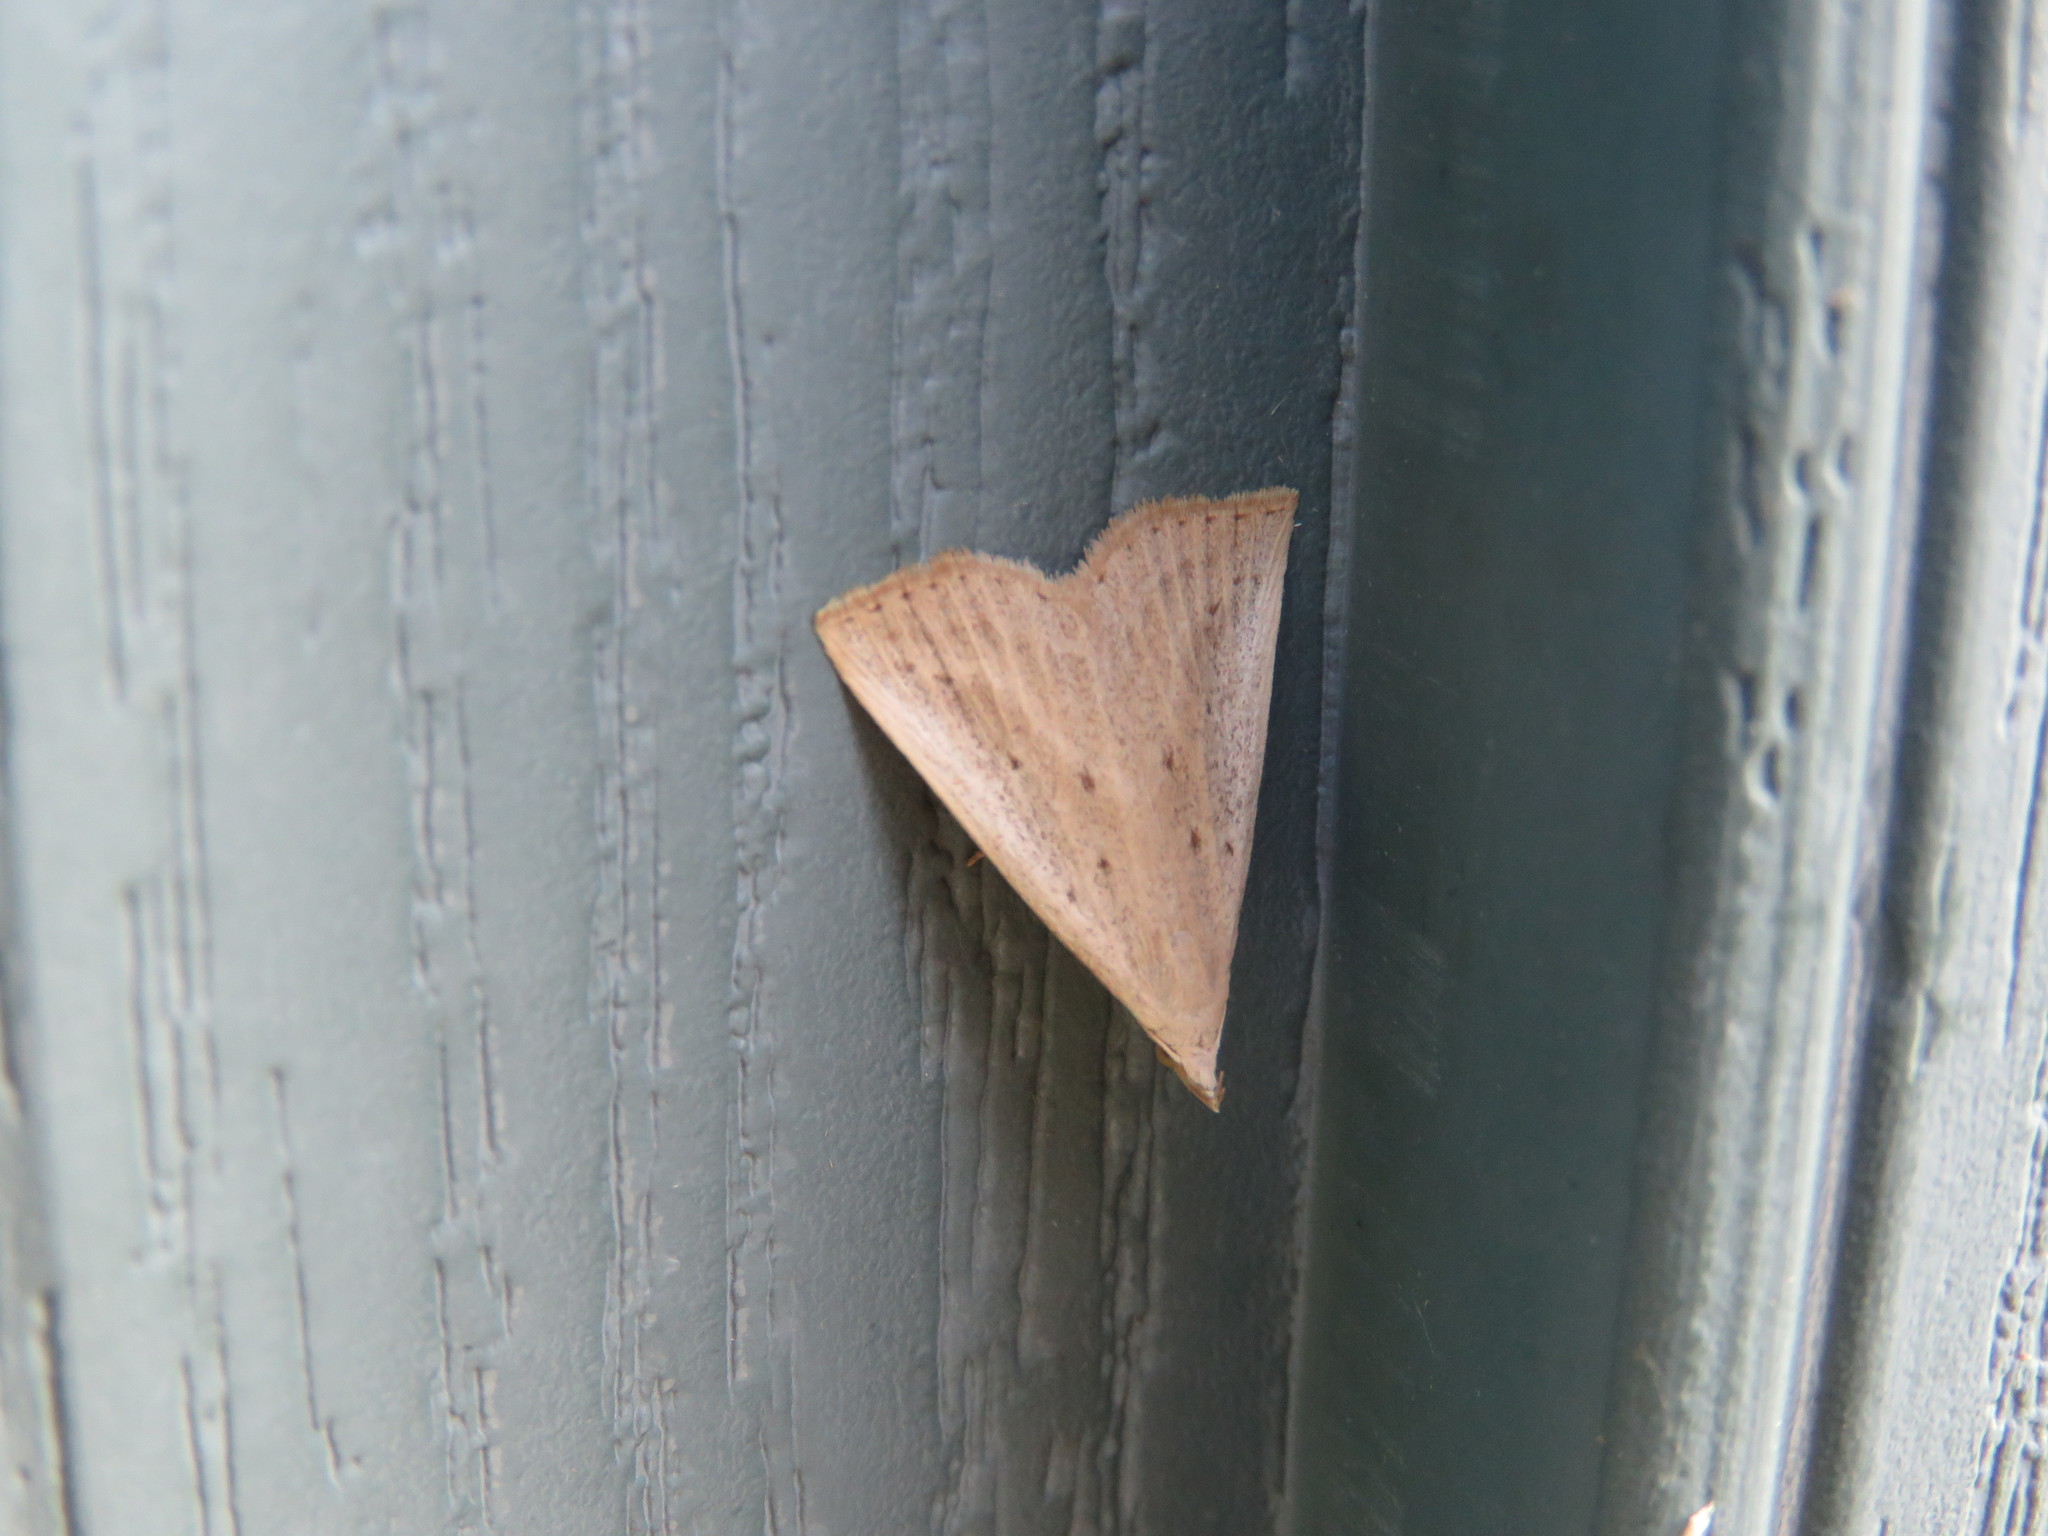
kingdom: Animalia
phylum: Arthropoda
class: Insecta
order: Lepidoptera
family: Erebidae
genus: Macrochilo
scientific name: Macrochilo louisiana
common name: Louisiana macrochilo
